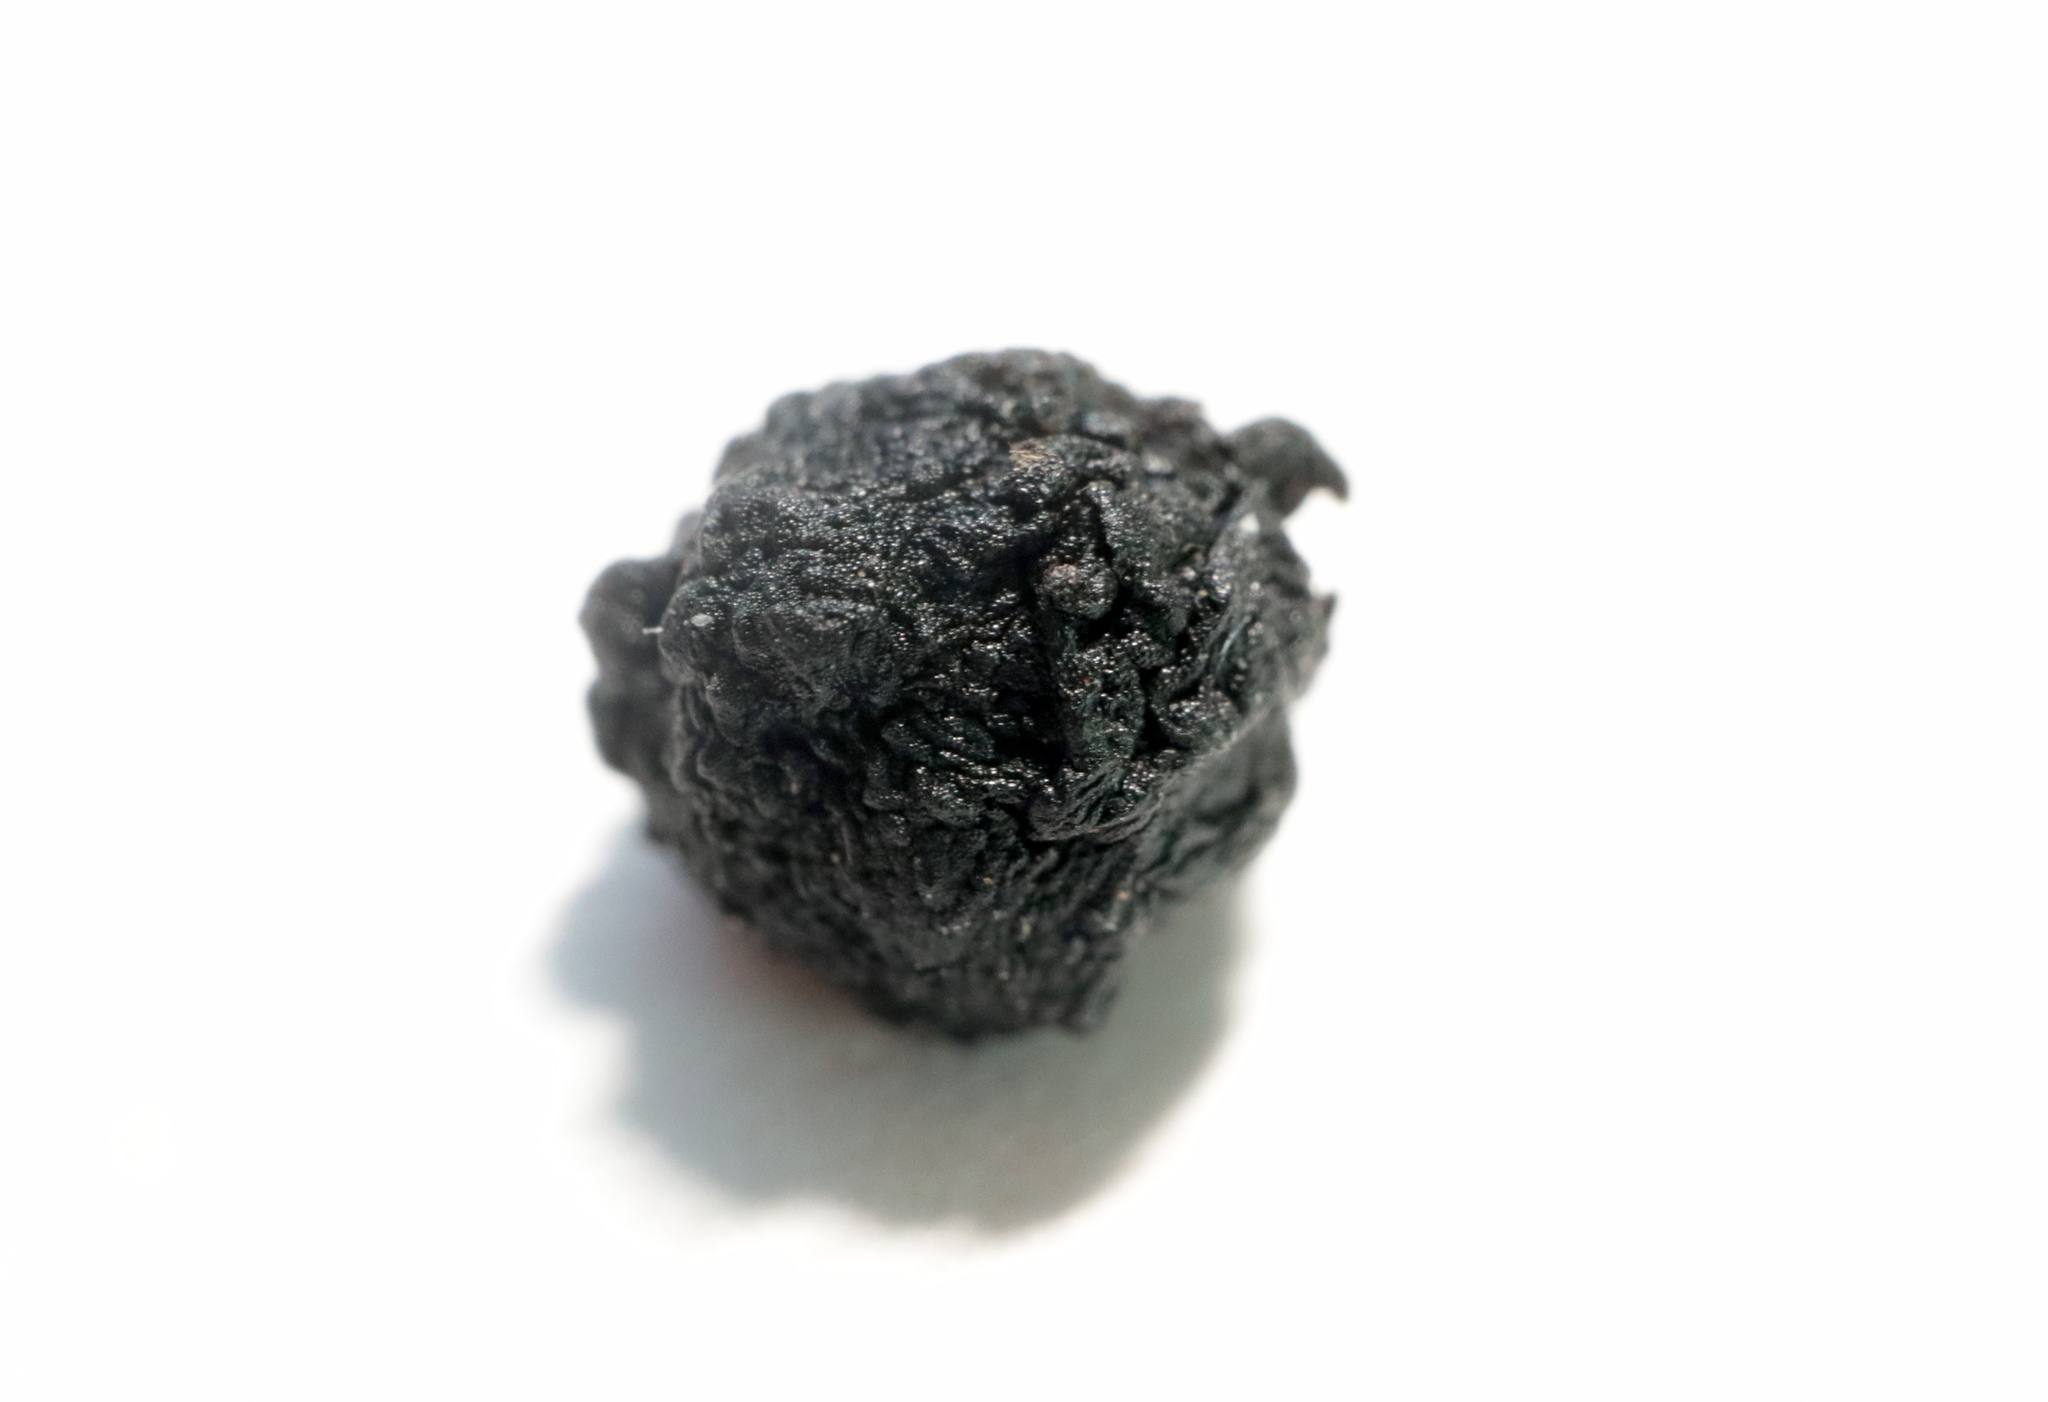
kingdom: Animalia
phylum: Arthropoda
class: Insecta
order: Hymenoptera
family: Cynipidae
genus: Callirhytis
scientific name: Callirhytis
